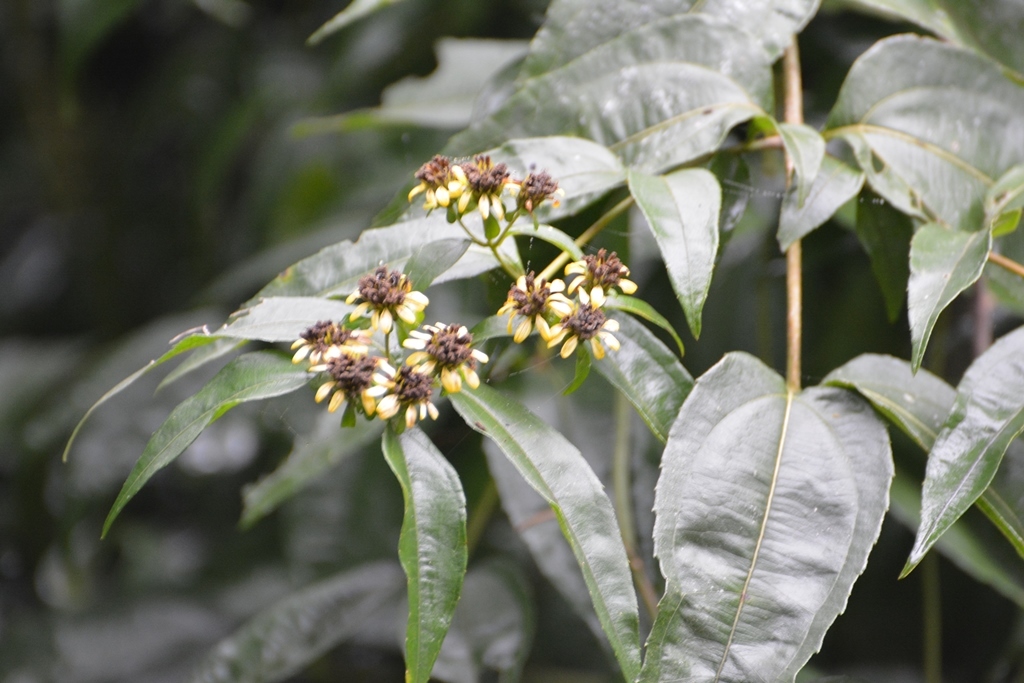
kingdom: Plantae
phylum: Tracheophyta
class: Magnoliopsida
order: Asterales
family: Asteraceae
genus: Lundellianthus
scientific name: Lundellianthus breedlovei
